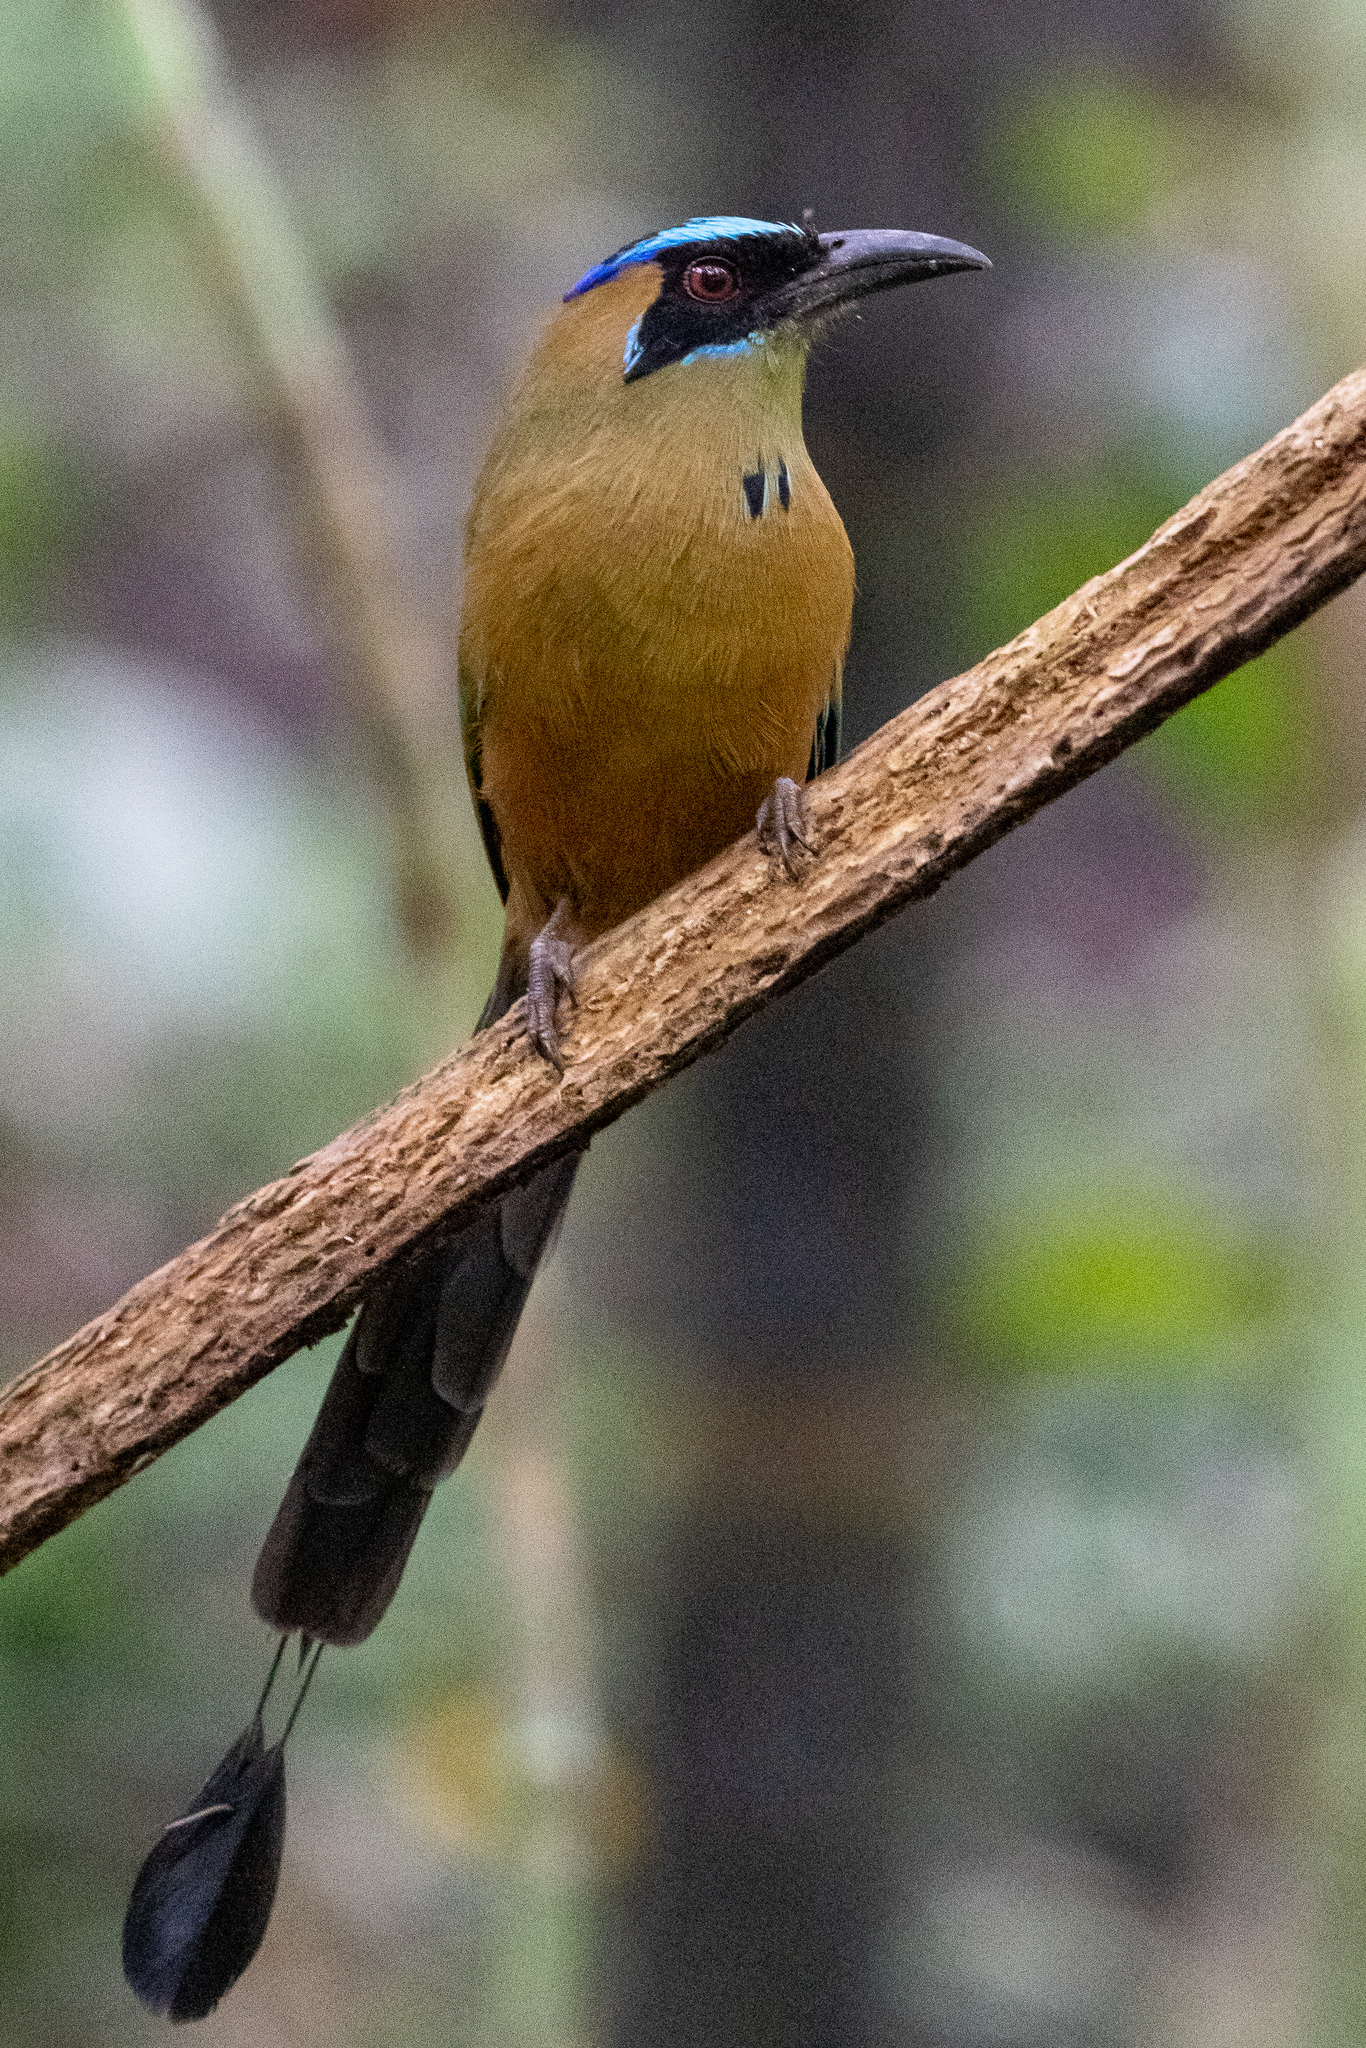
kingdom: Animalia
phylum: Chordata
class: Aves
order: Coraciiformes
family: Momotidae
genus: Momotus
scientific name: Momotus subrufescens
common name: Whooping motmot
